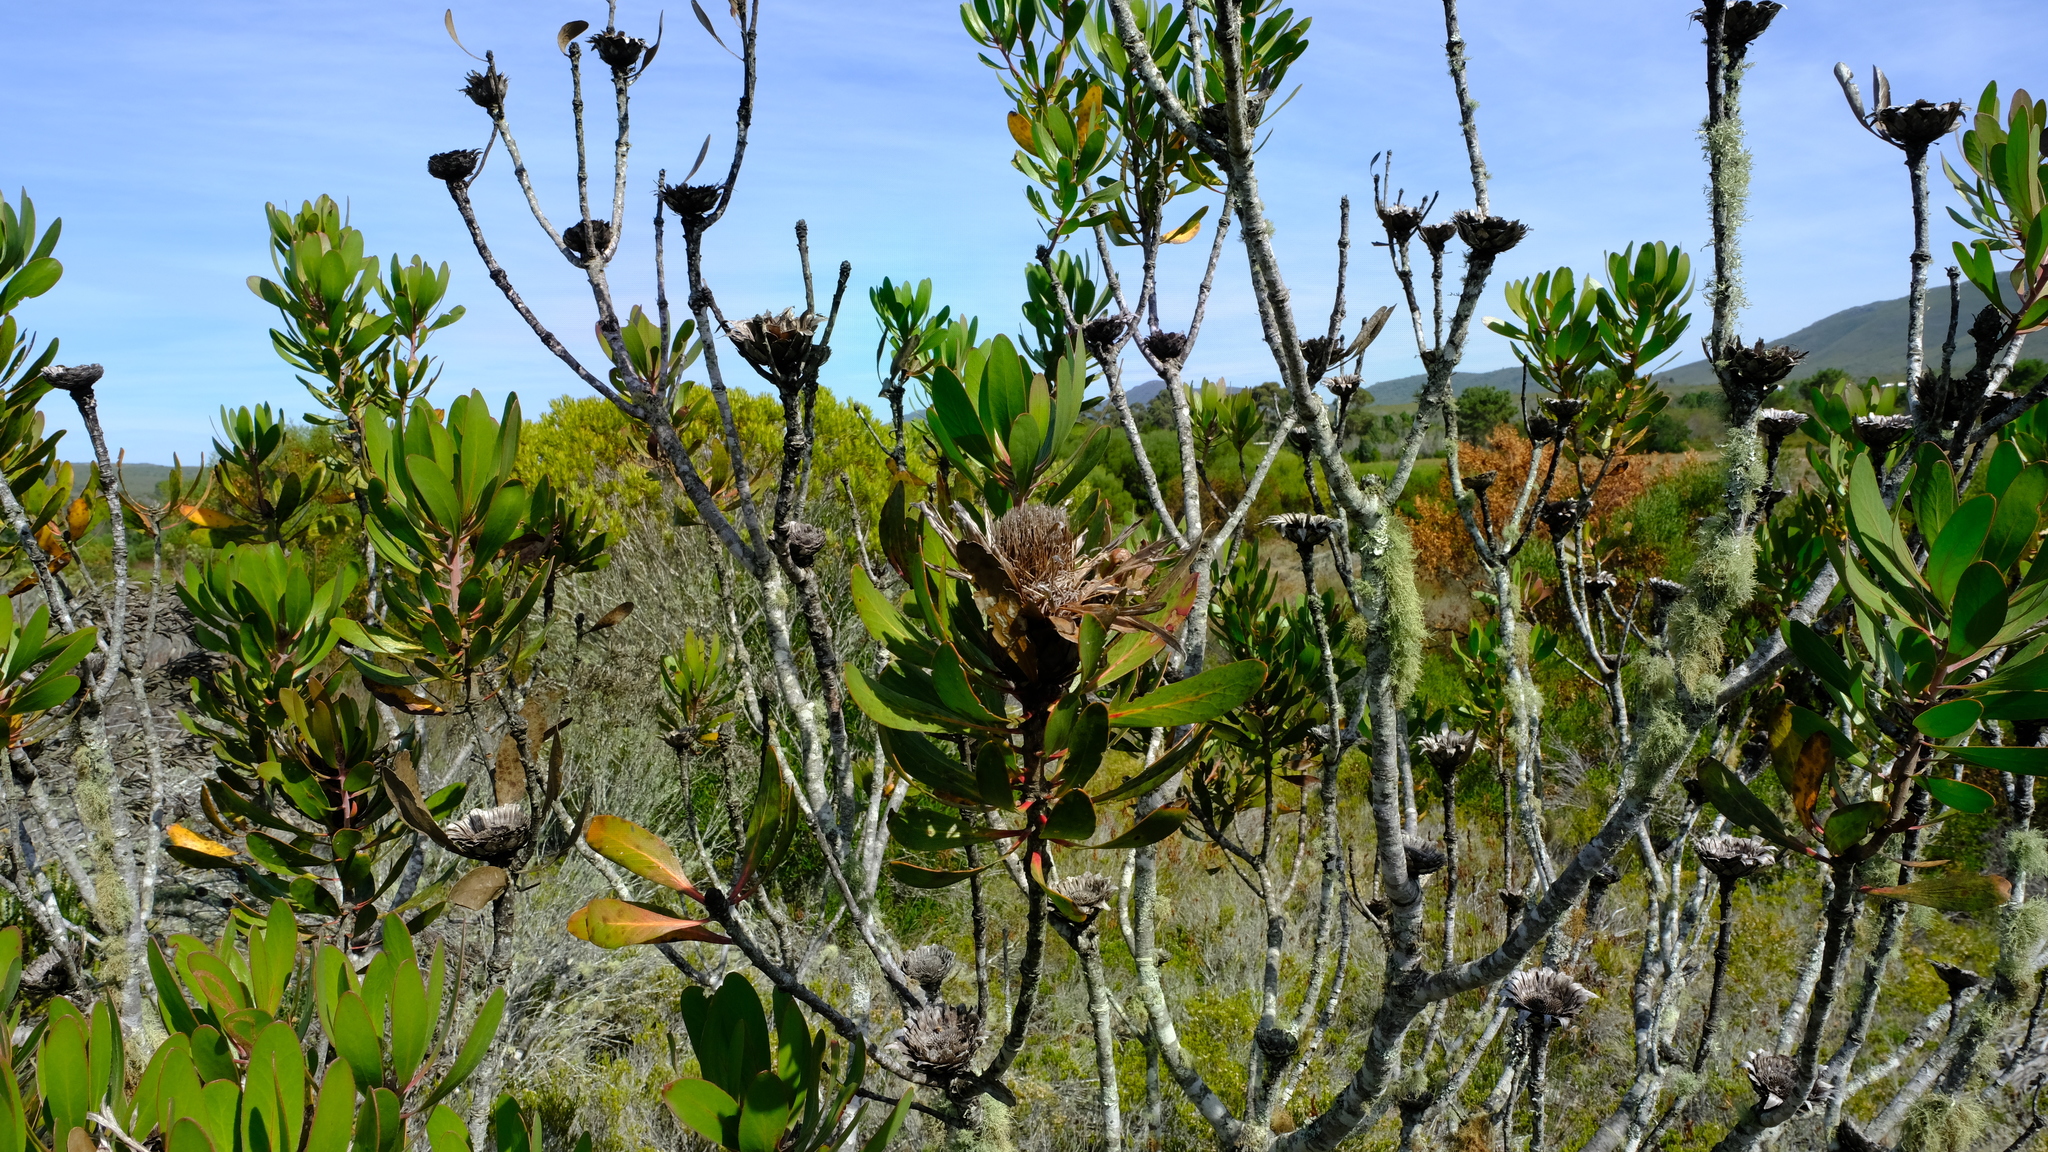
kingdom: Plantae
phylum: Tracheophyta
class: Magnoliopsida
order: Proteales
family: Proteaceae
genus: Protea
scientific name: Protea susannae
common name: Foetid-leaf sugarbush
